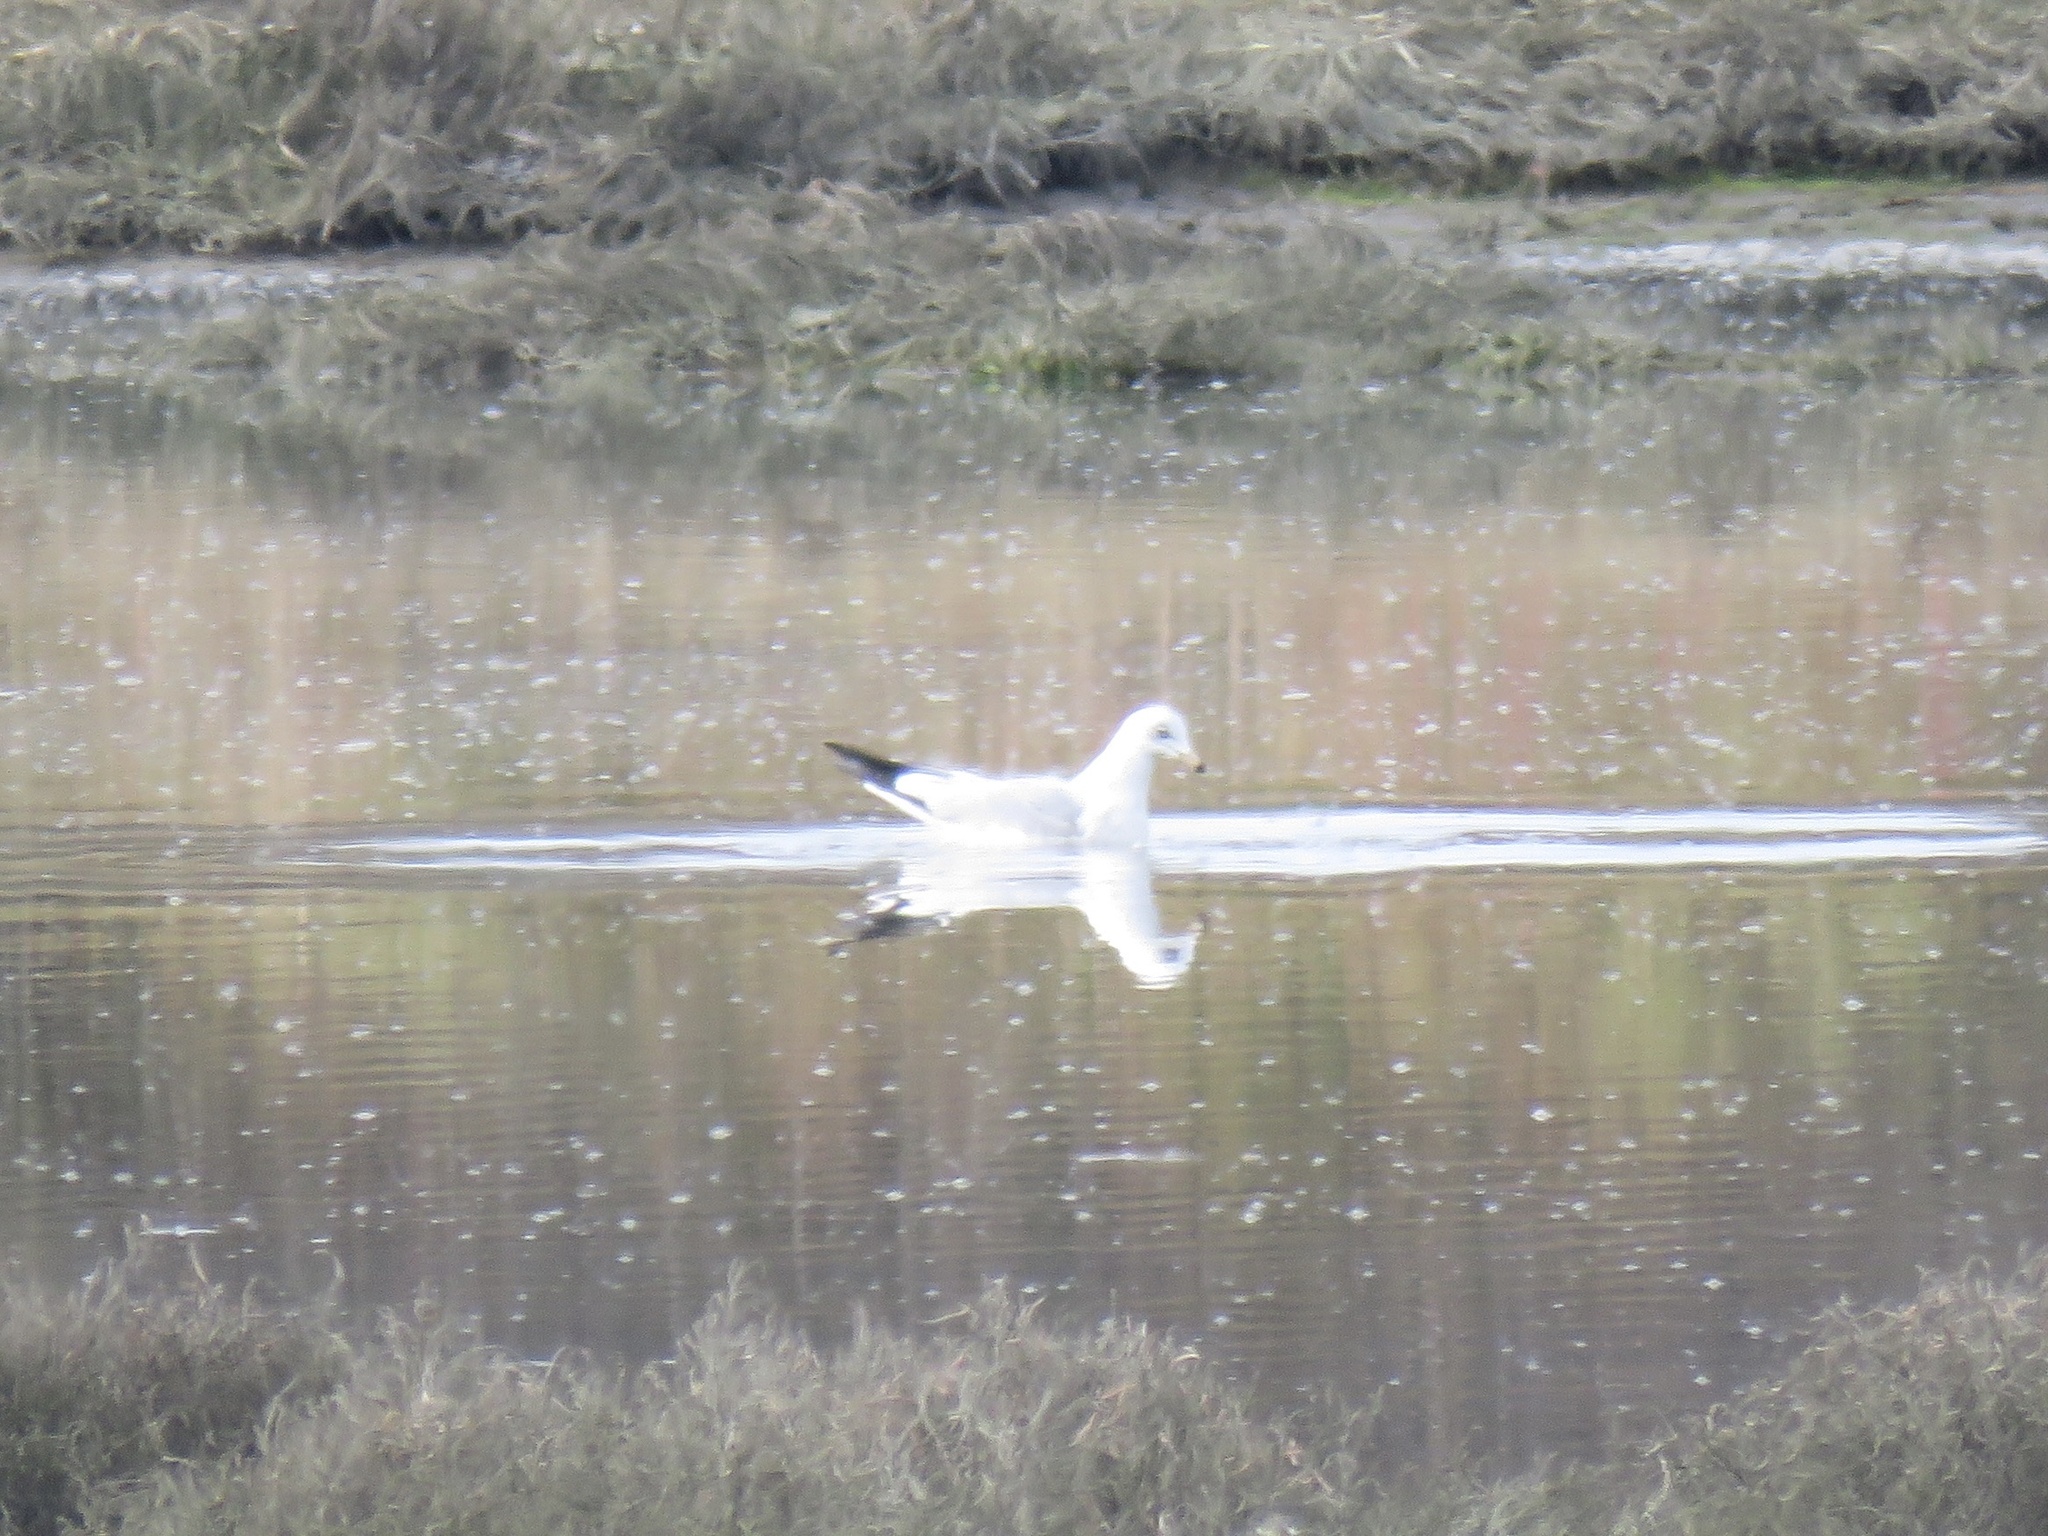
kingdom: Animalia
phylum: Chordata
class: Aves
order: Charadriiformes
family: Laridae
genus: Larus
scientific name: Larus delawarensis
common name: Ring-billed gull
